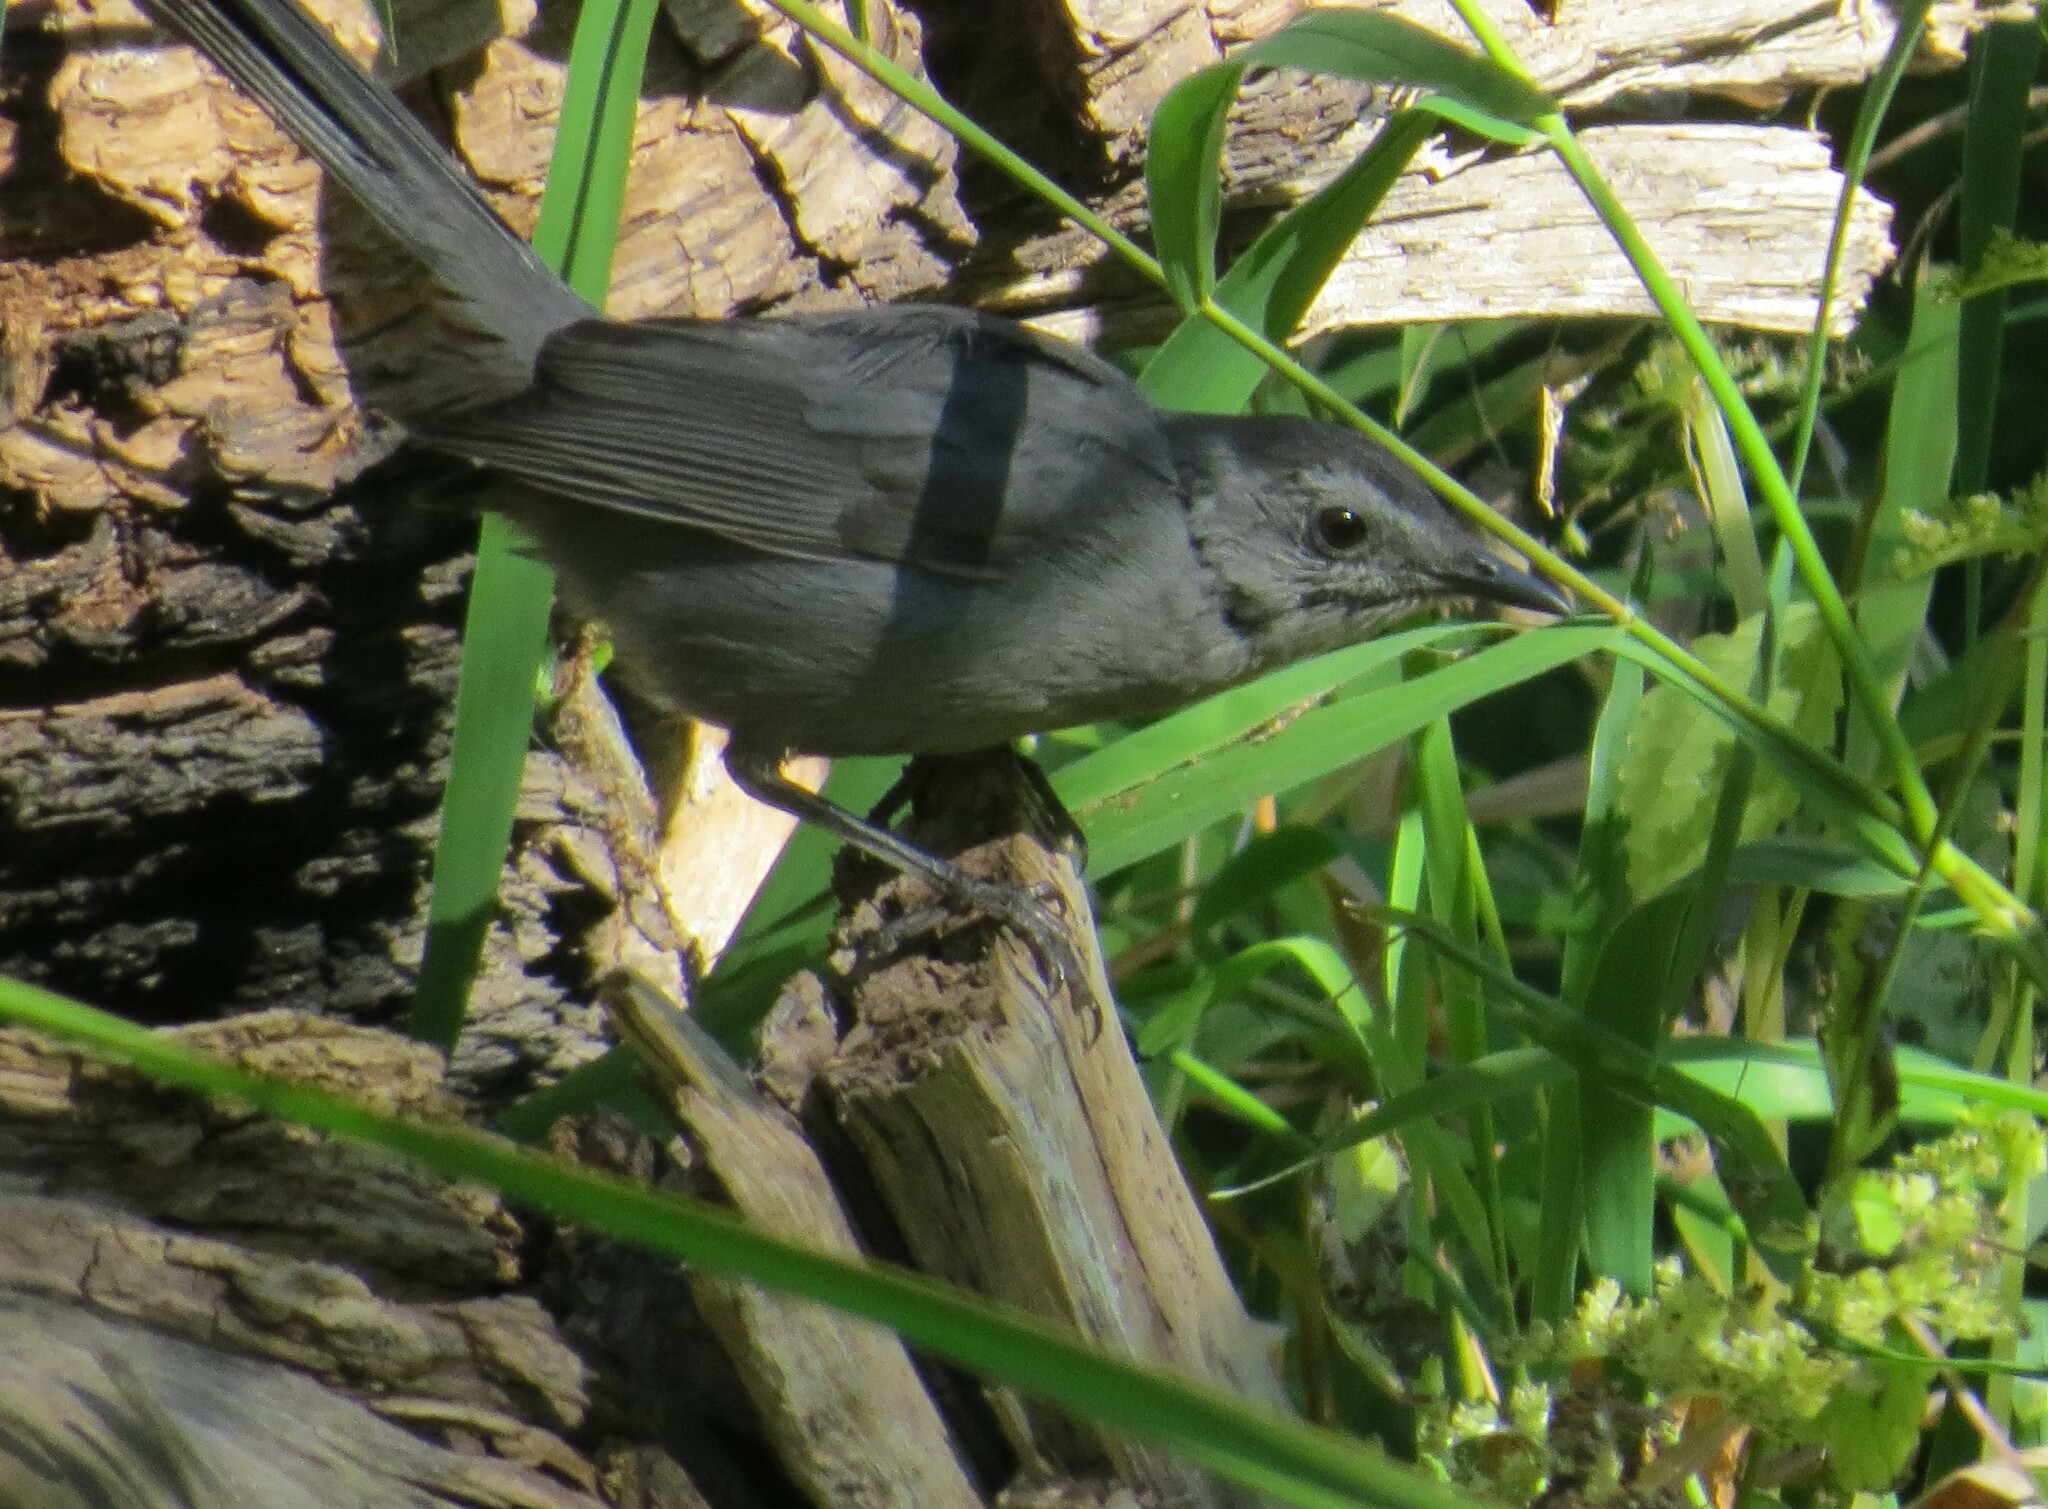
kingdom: Animalia
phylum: Chordata
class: Aves
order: Passeriformes
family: Mimidae
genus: Dumetella
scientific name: Dumetella carolinensis
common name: Gray catbird
